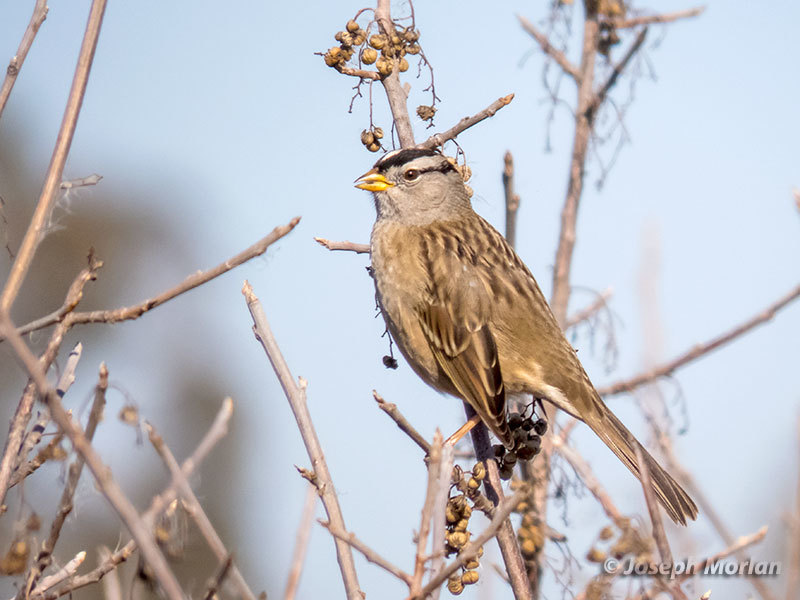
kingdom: Animalia
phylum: Chordata
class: Aves
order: Passeriformes
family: Passerellidae
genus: Zonotrichia
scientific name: Zonotrichia leucophrys
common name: White-crowned sparrow
